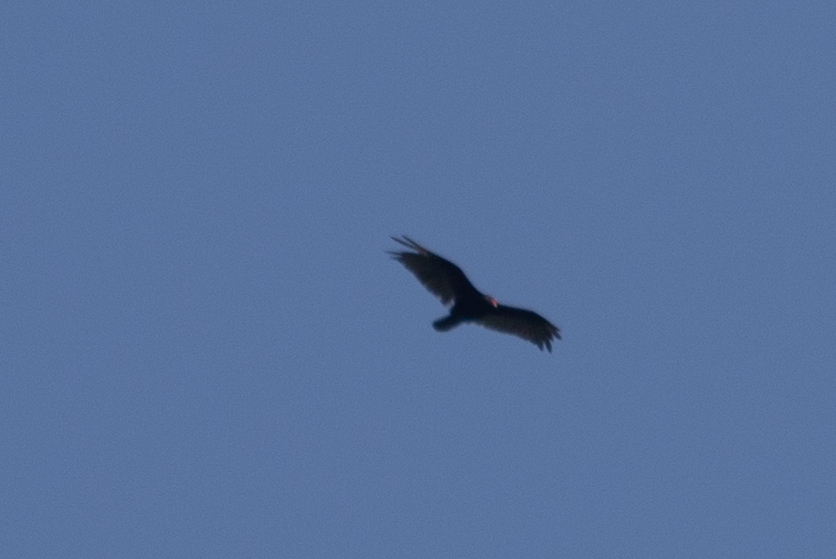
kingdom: Animalia
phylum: Chordata
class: Aves
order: Accipitriformes
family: Cathartidae
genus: Cathartes
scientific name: Cathartes aura
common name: Turkey vulture
